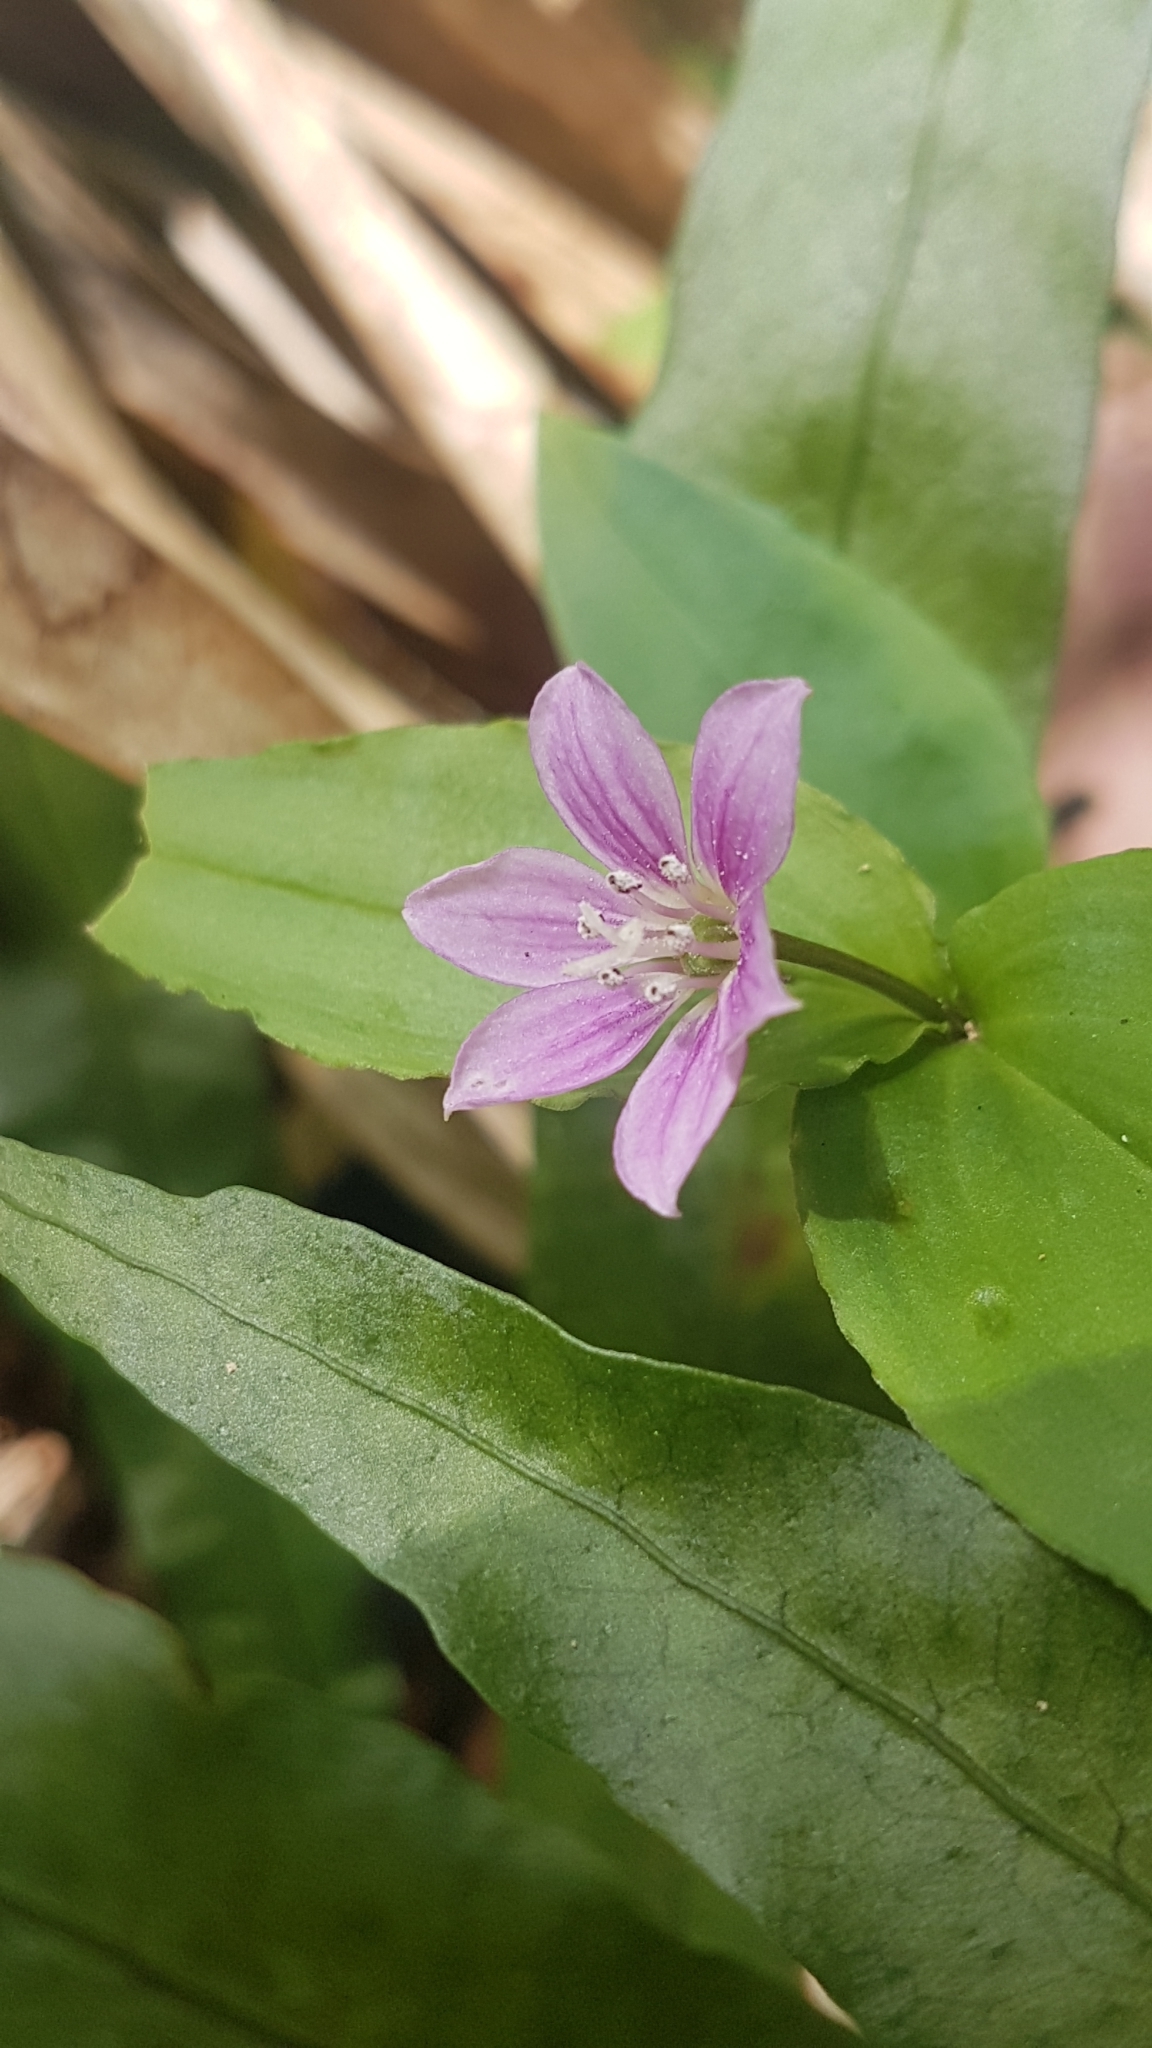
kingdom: Plantae
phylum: Tracheophyta
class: Liliopsida
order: Liliales
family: Colchicaceae
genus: Schelhammera
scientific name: Schelhammera undulata
